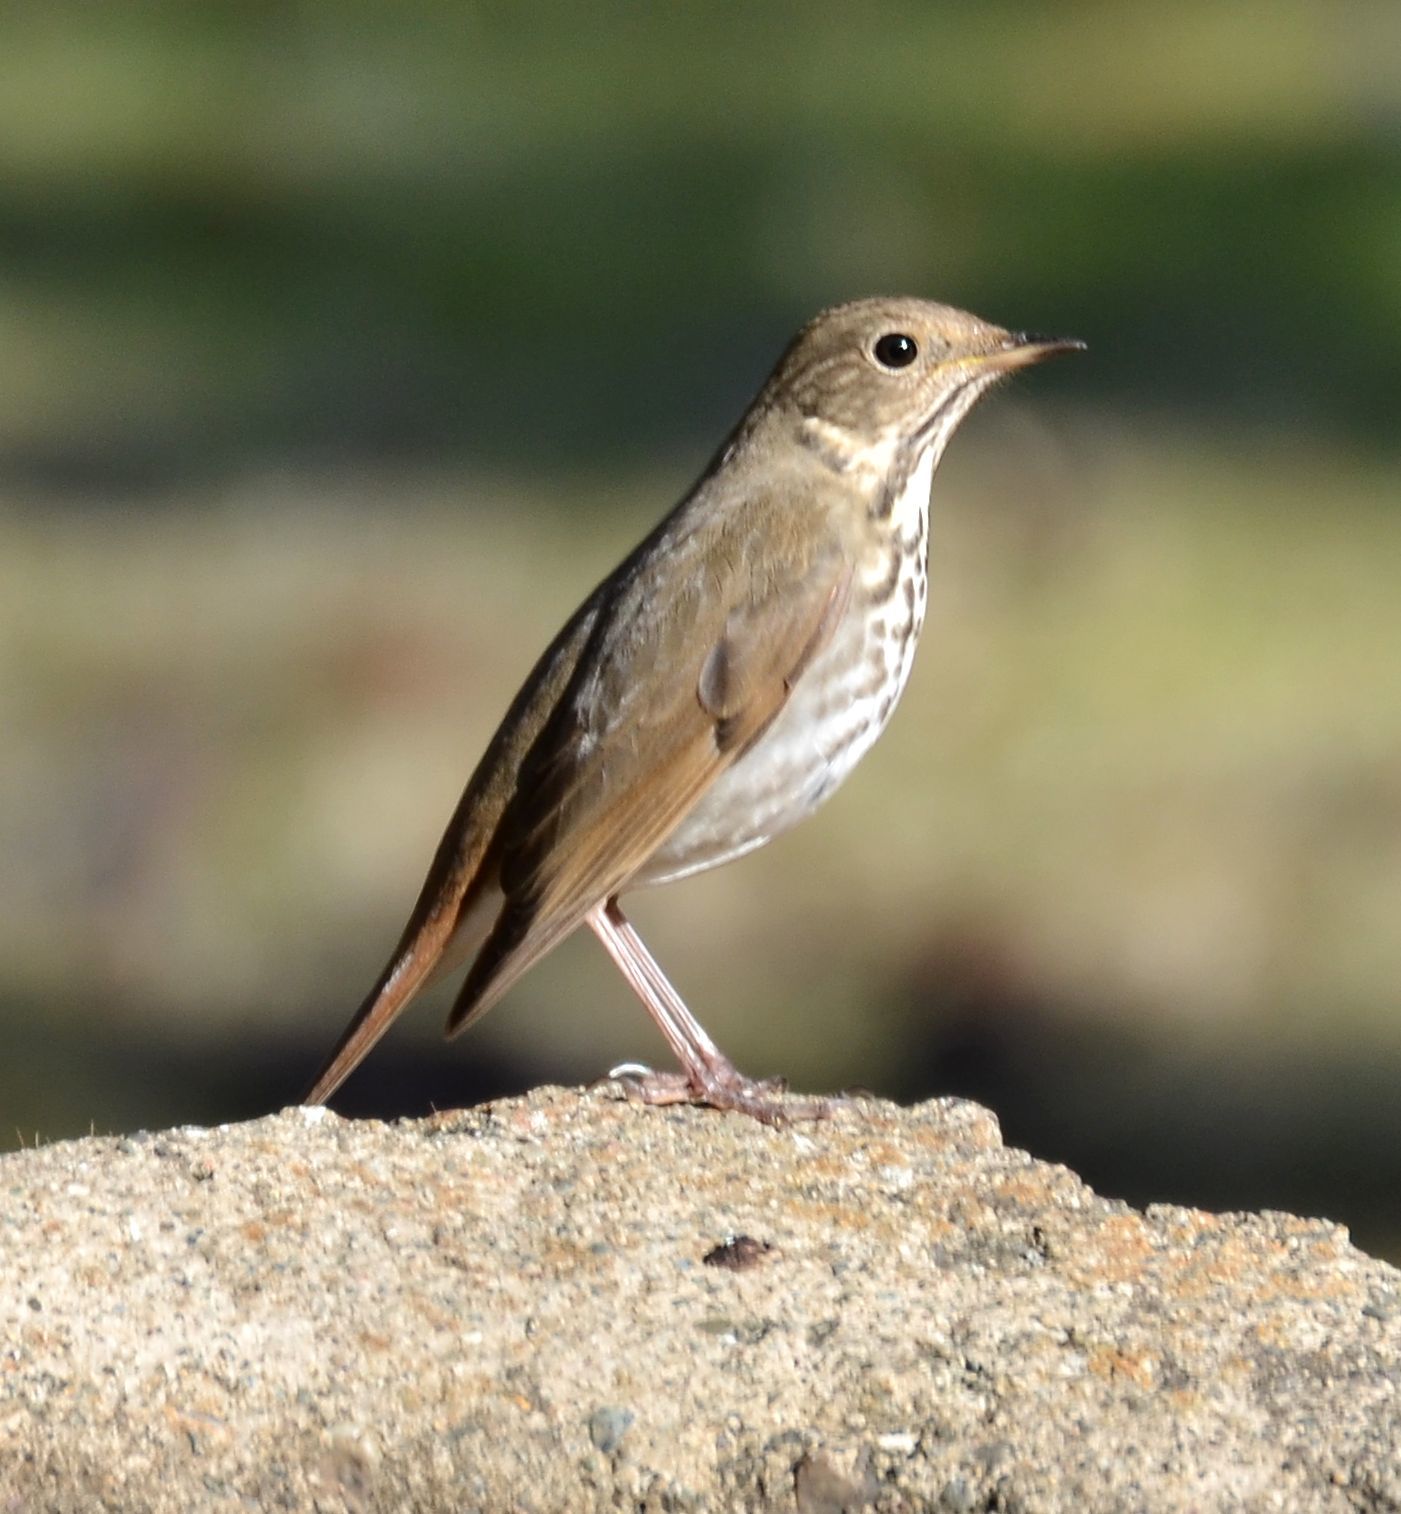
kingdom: Animalia
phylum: Chordata
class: Aves
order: Passeriformes
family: Turdidae
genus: Catharus
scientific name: Catharus guttatus
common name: Hermit thrush
